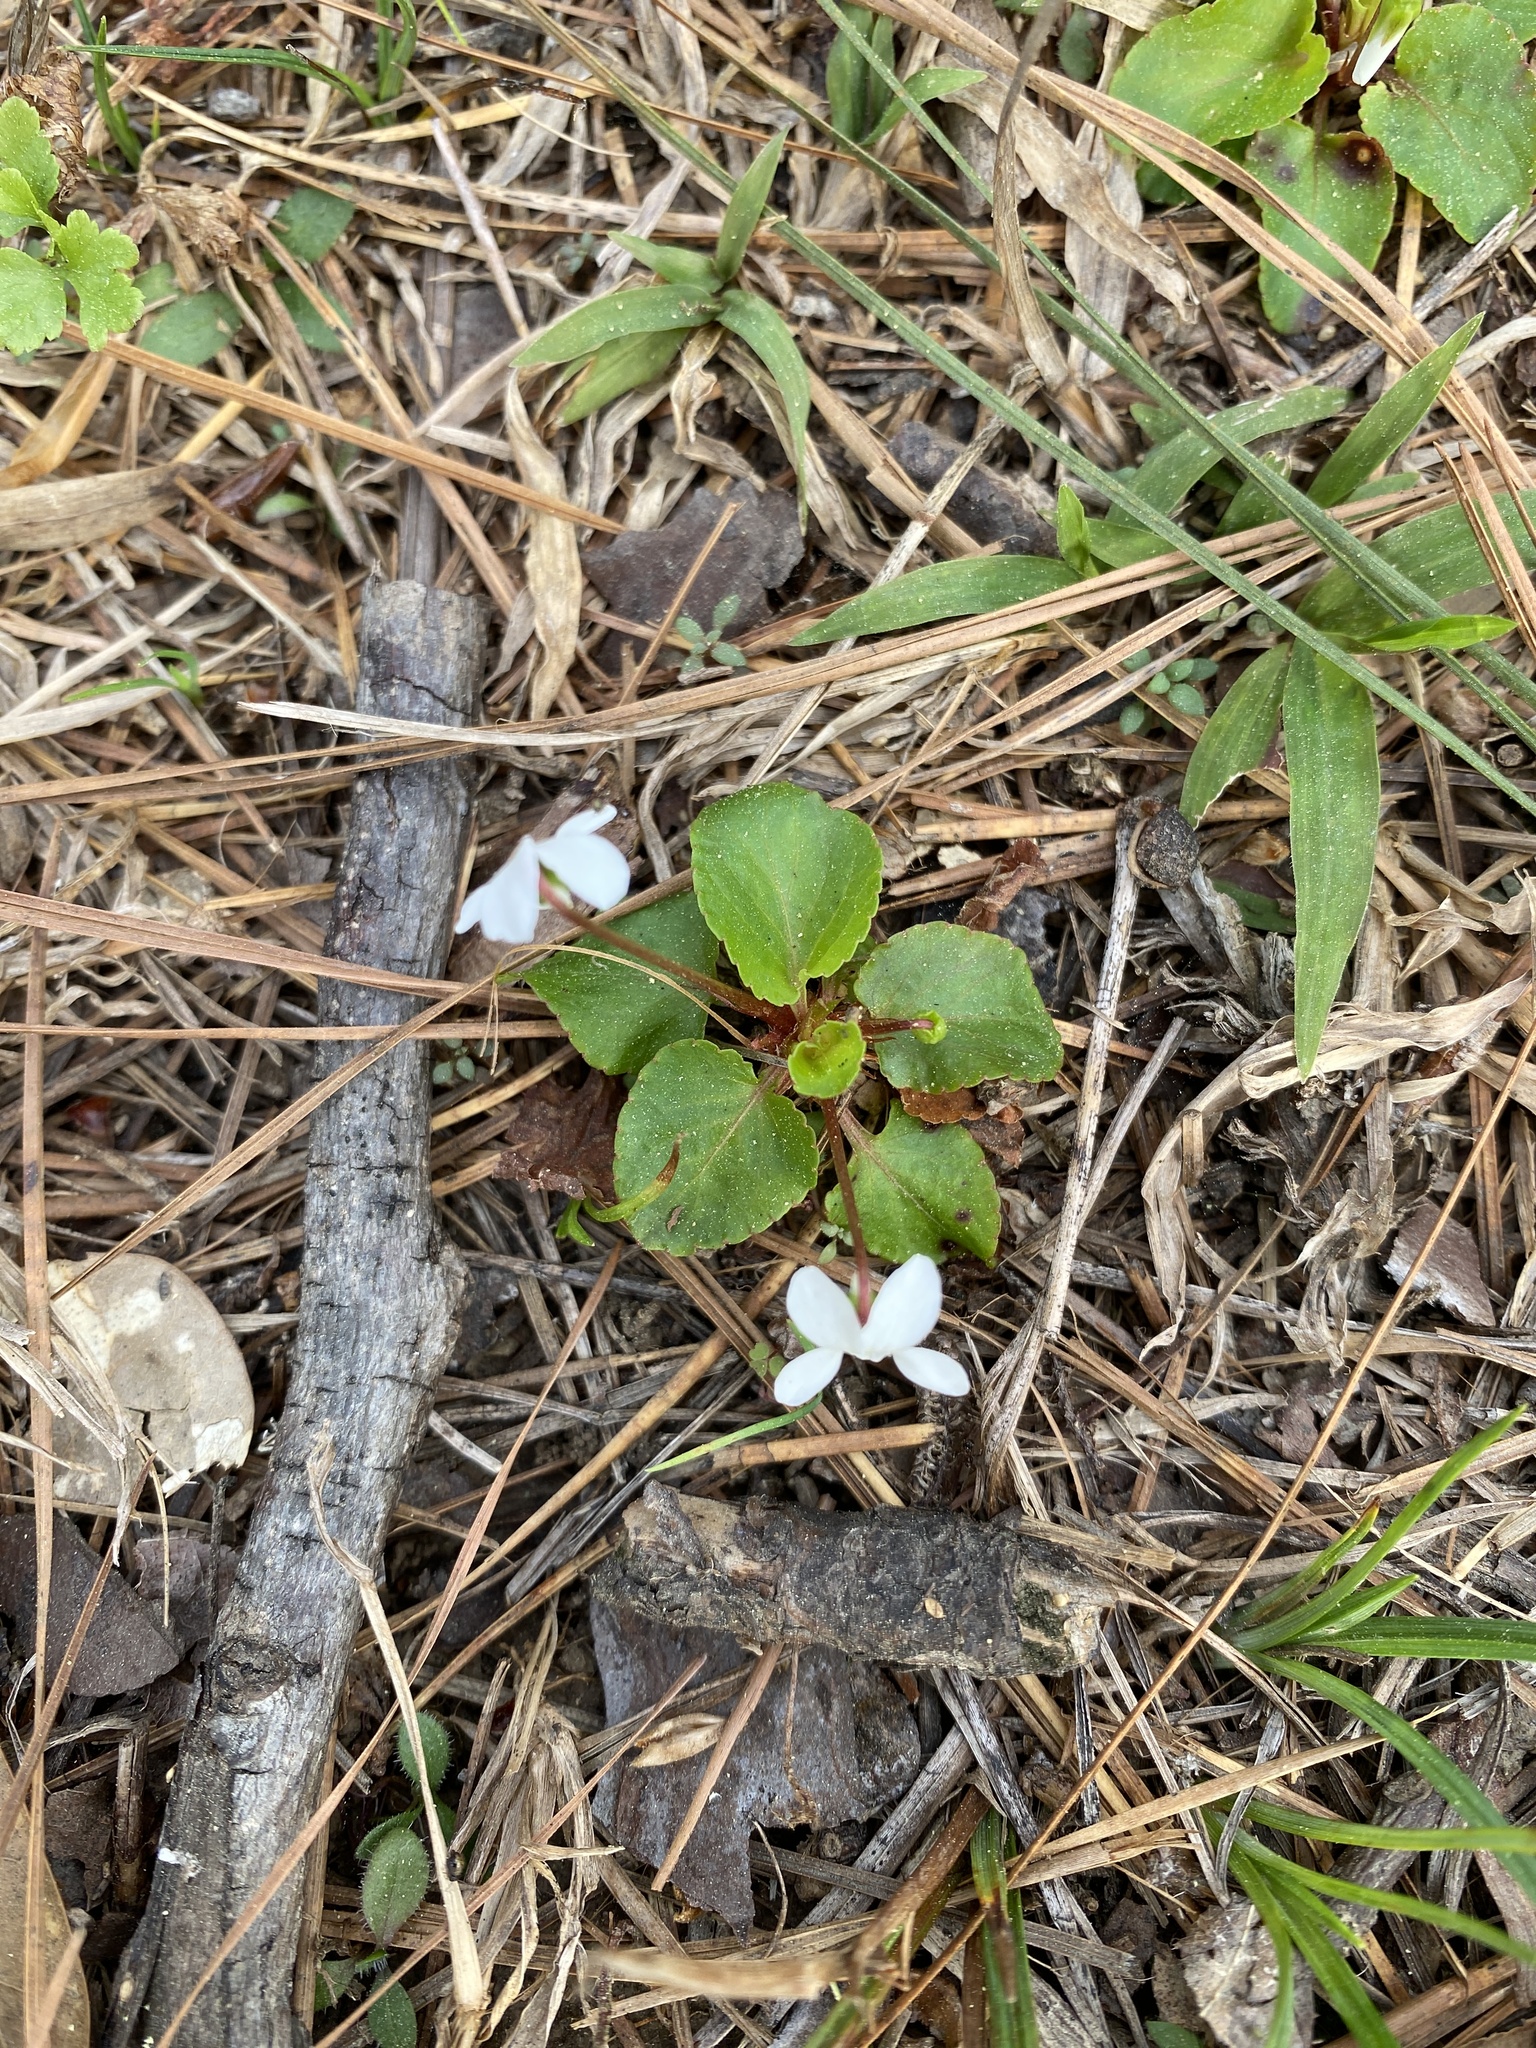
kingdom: Plantae
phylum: Tracheophyta
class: Magnoliopsida
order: Malpighiales
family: Violaceae
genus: Viola
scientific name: Viola primulifolia
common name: Primrose-leaf violet
